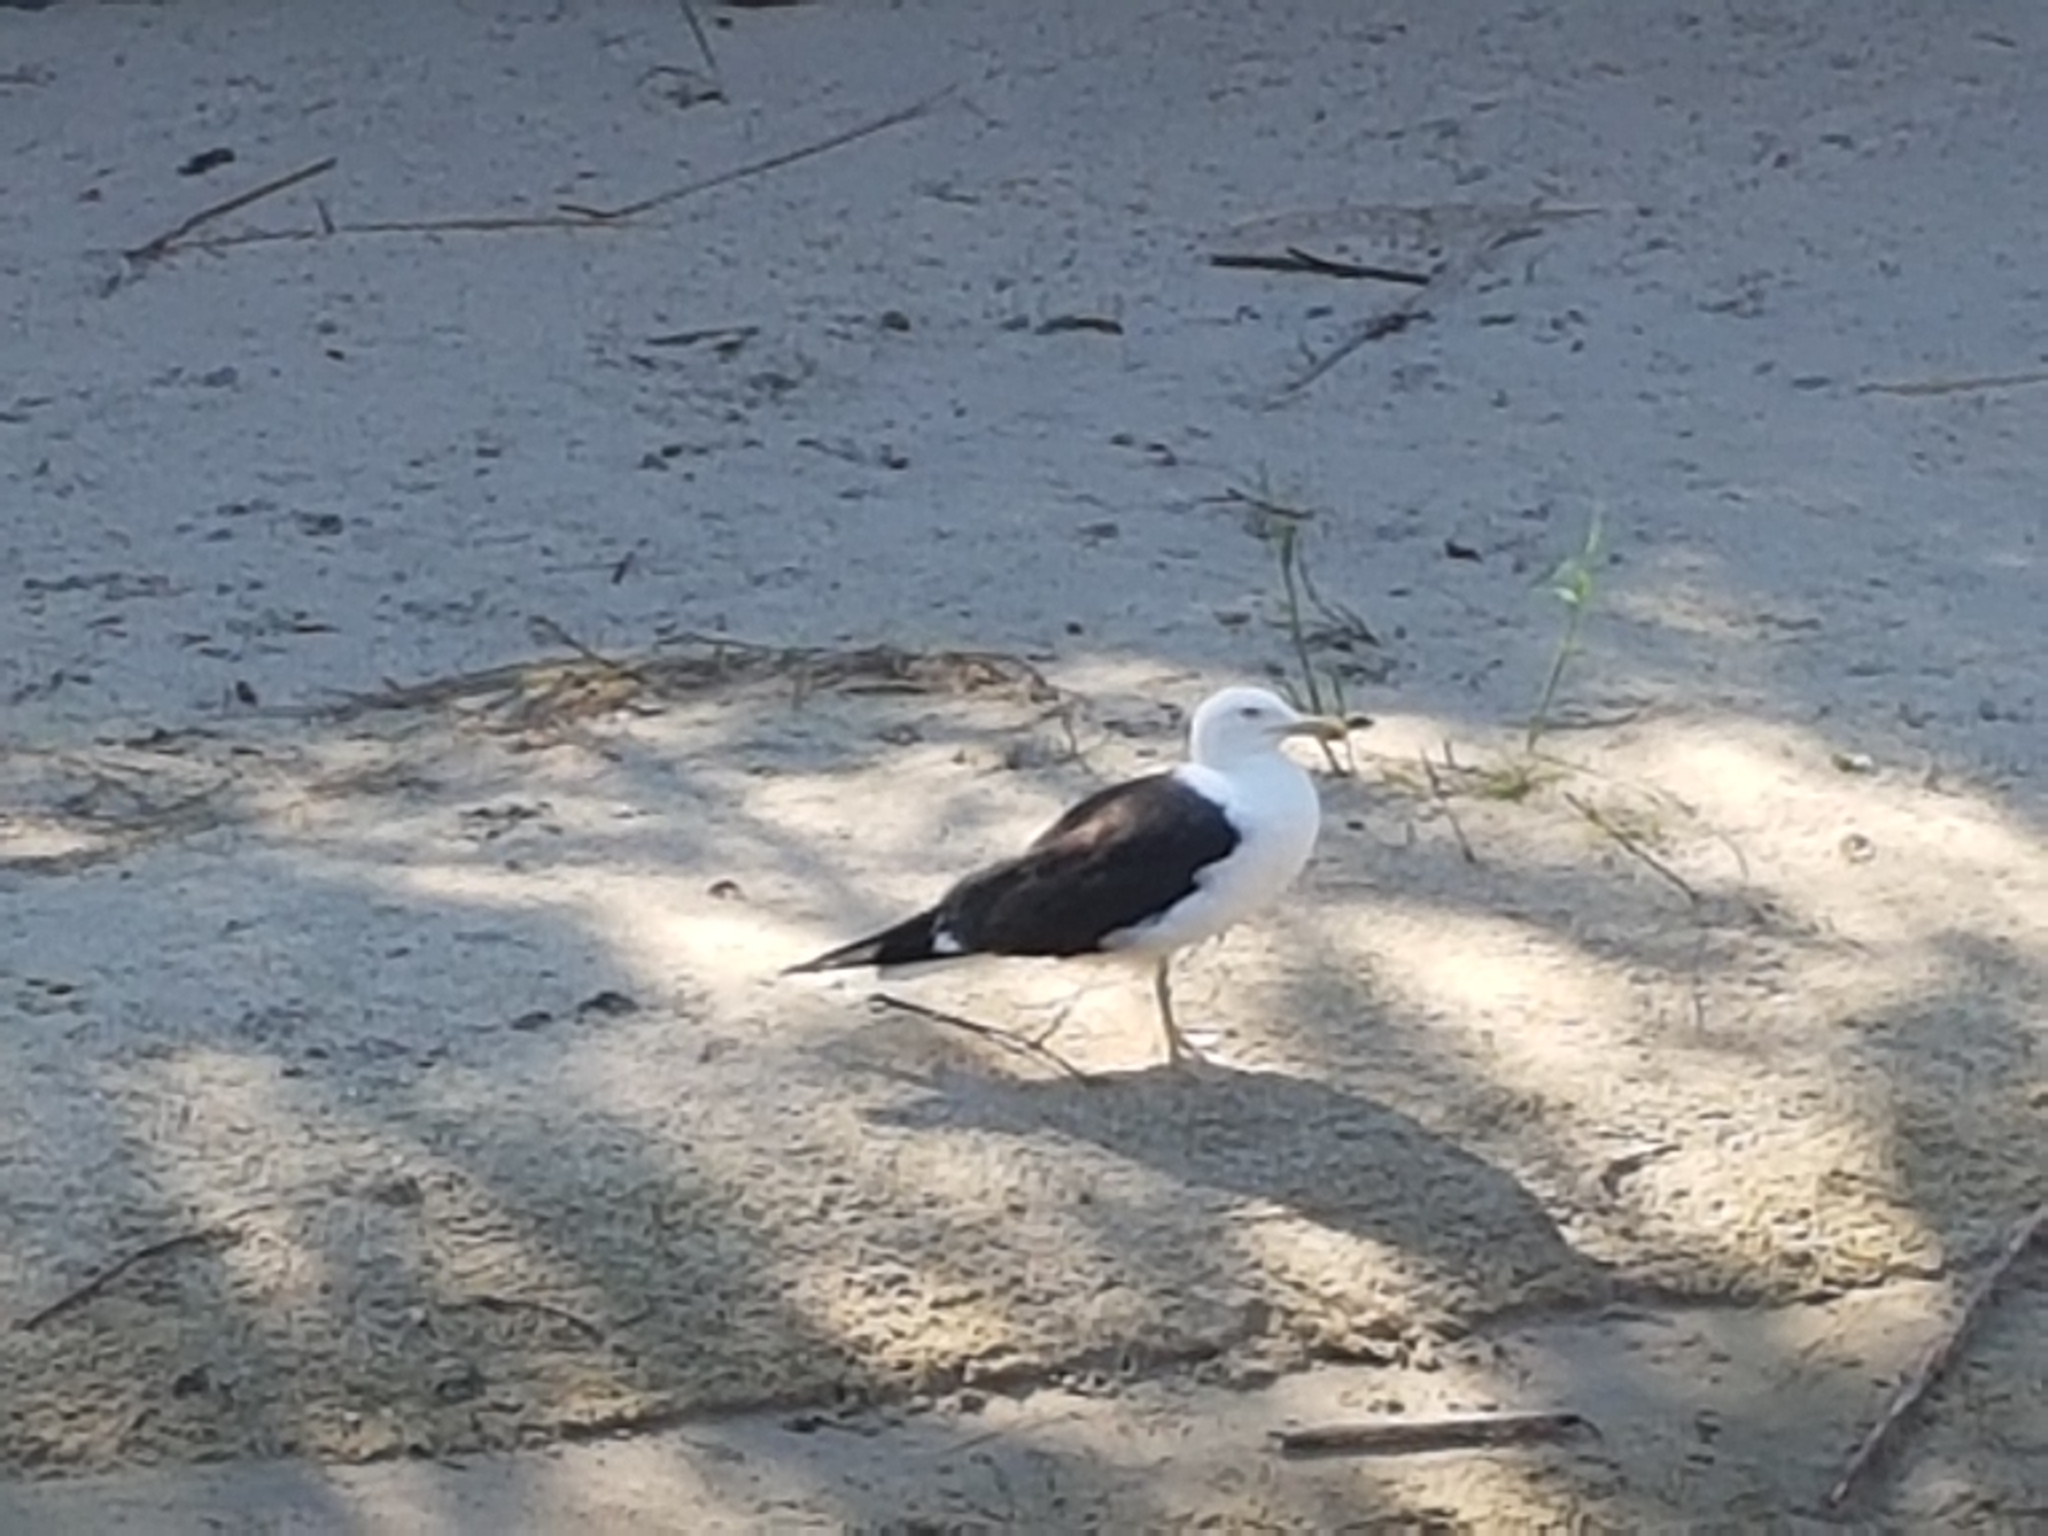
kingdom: Animalia
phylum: Chordata
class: Aves
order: Charadriiformes
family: Laridae
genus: Larus
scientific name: Larus fuscus
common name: Lesser black-backed gull
